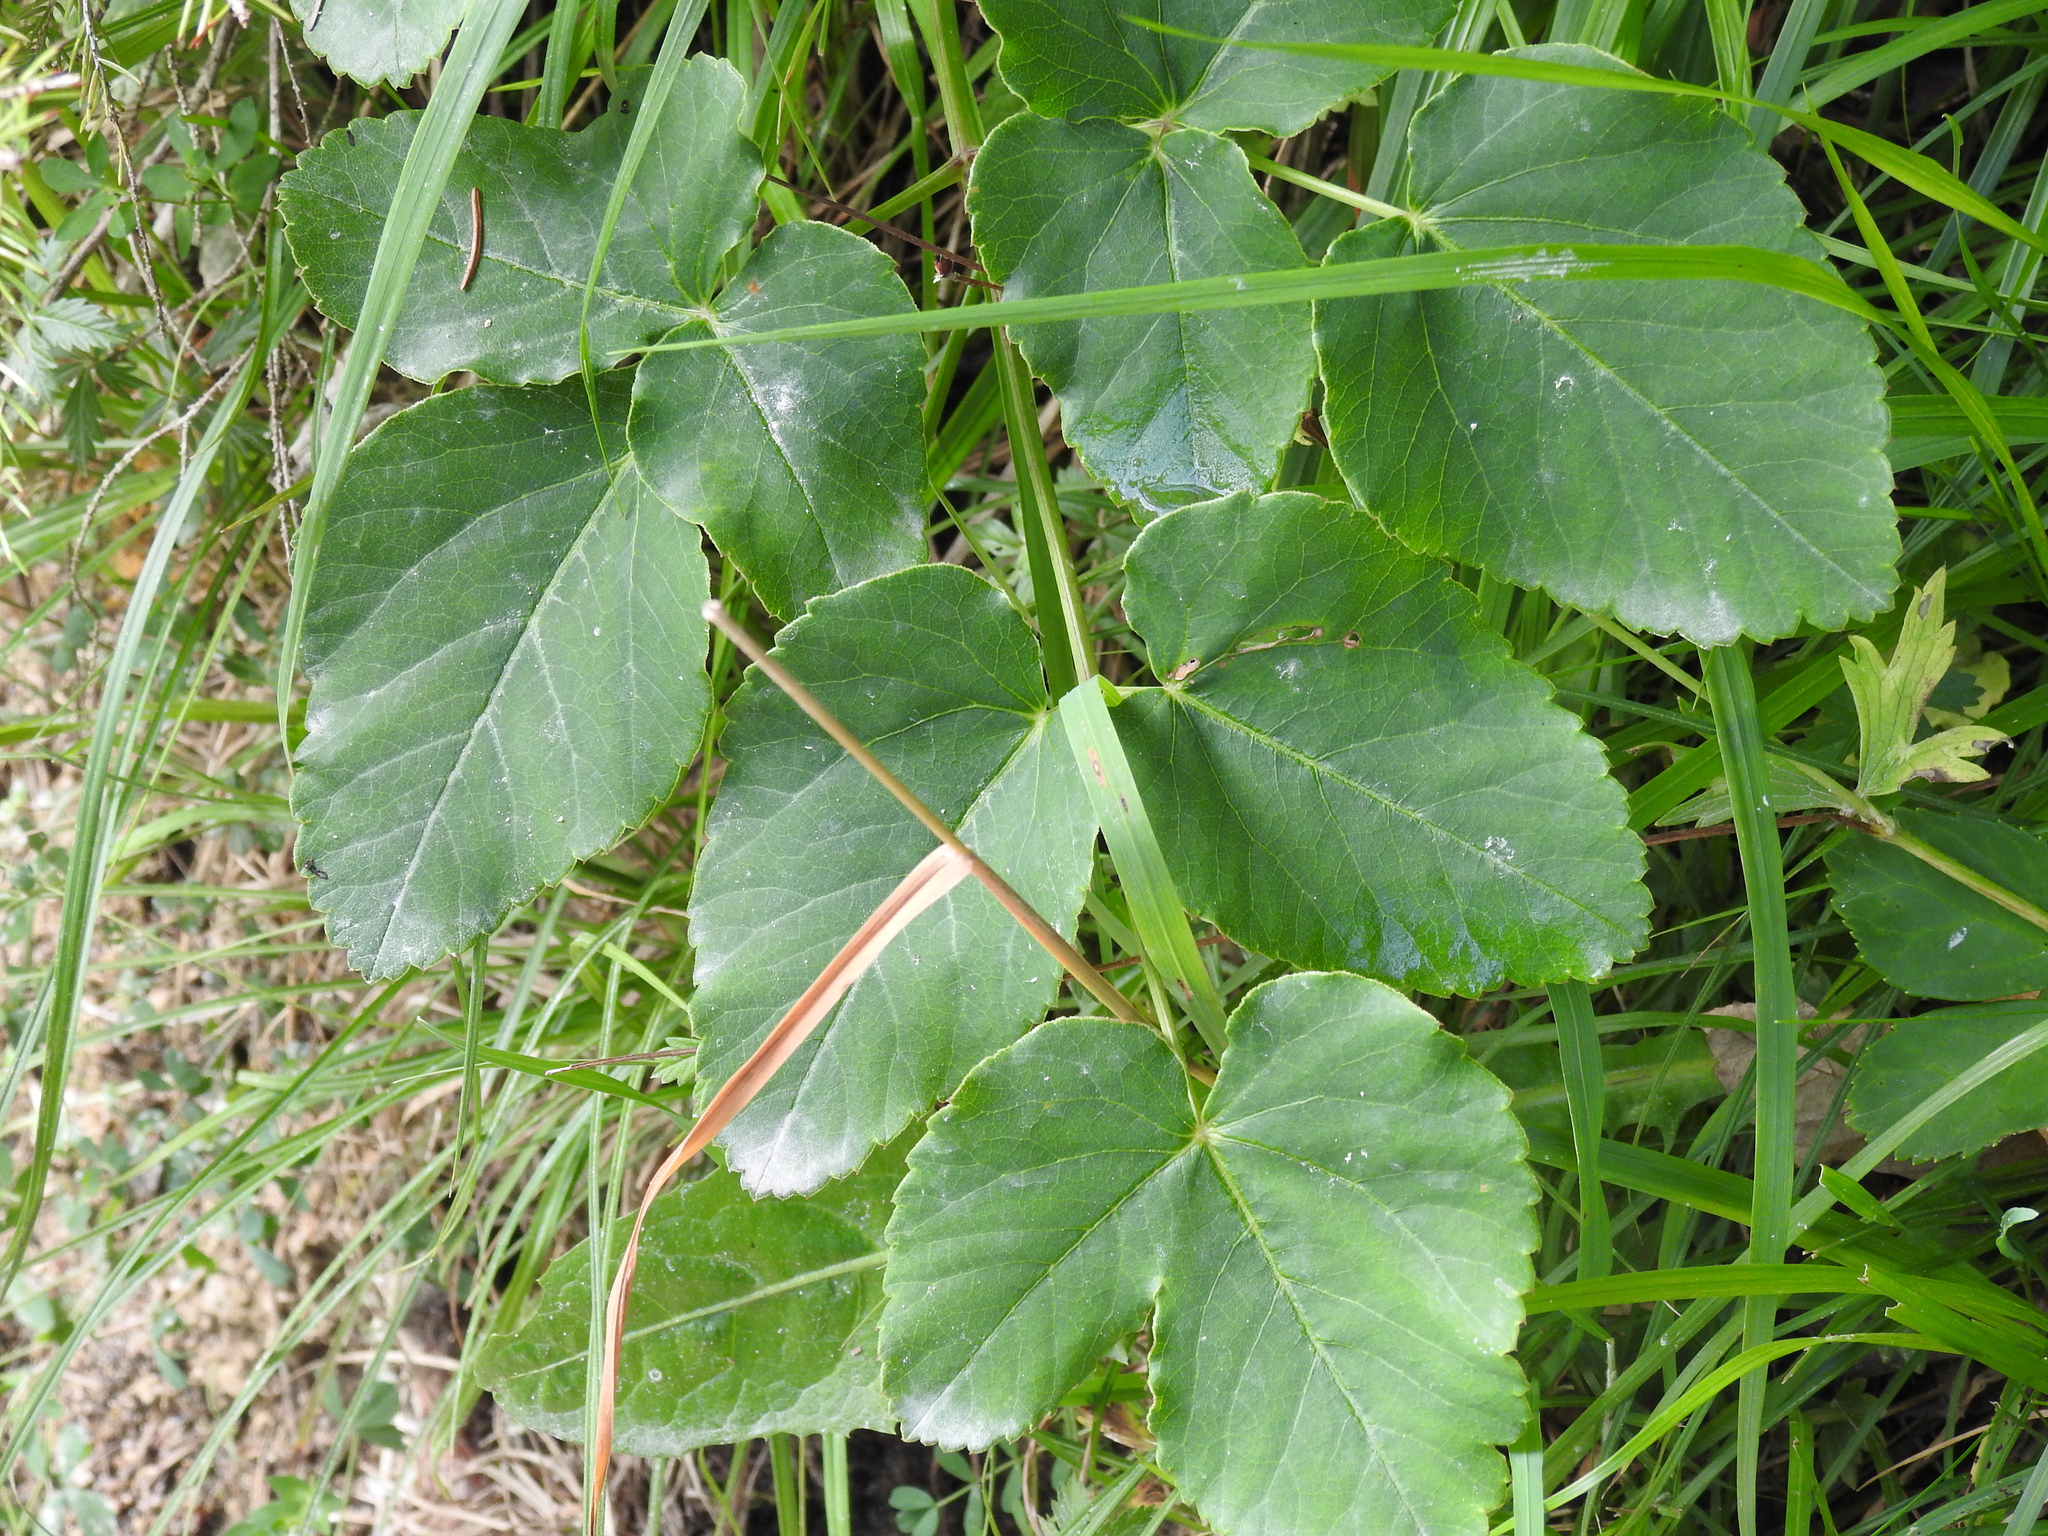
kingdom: Plantae
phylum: Tracheophyta
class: Magnoliopsida
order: Apiales
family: Apiaceae
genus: Laserpitium
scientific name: Laserpitium latifolium
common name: Broadleaf sermountain
